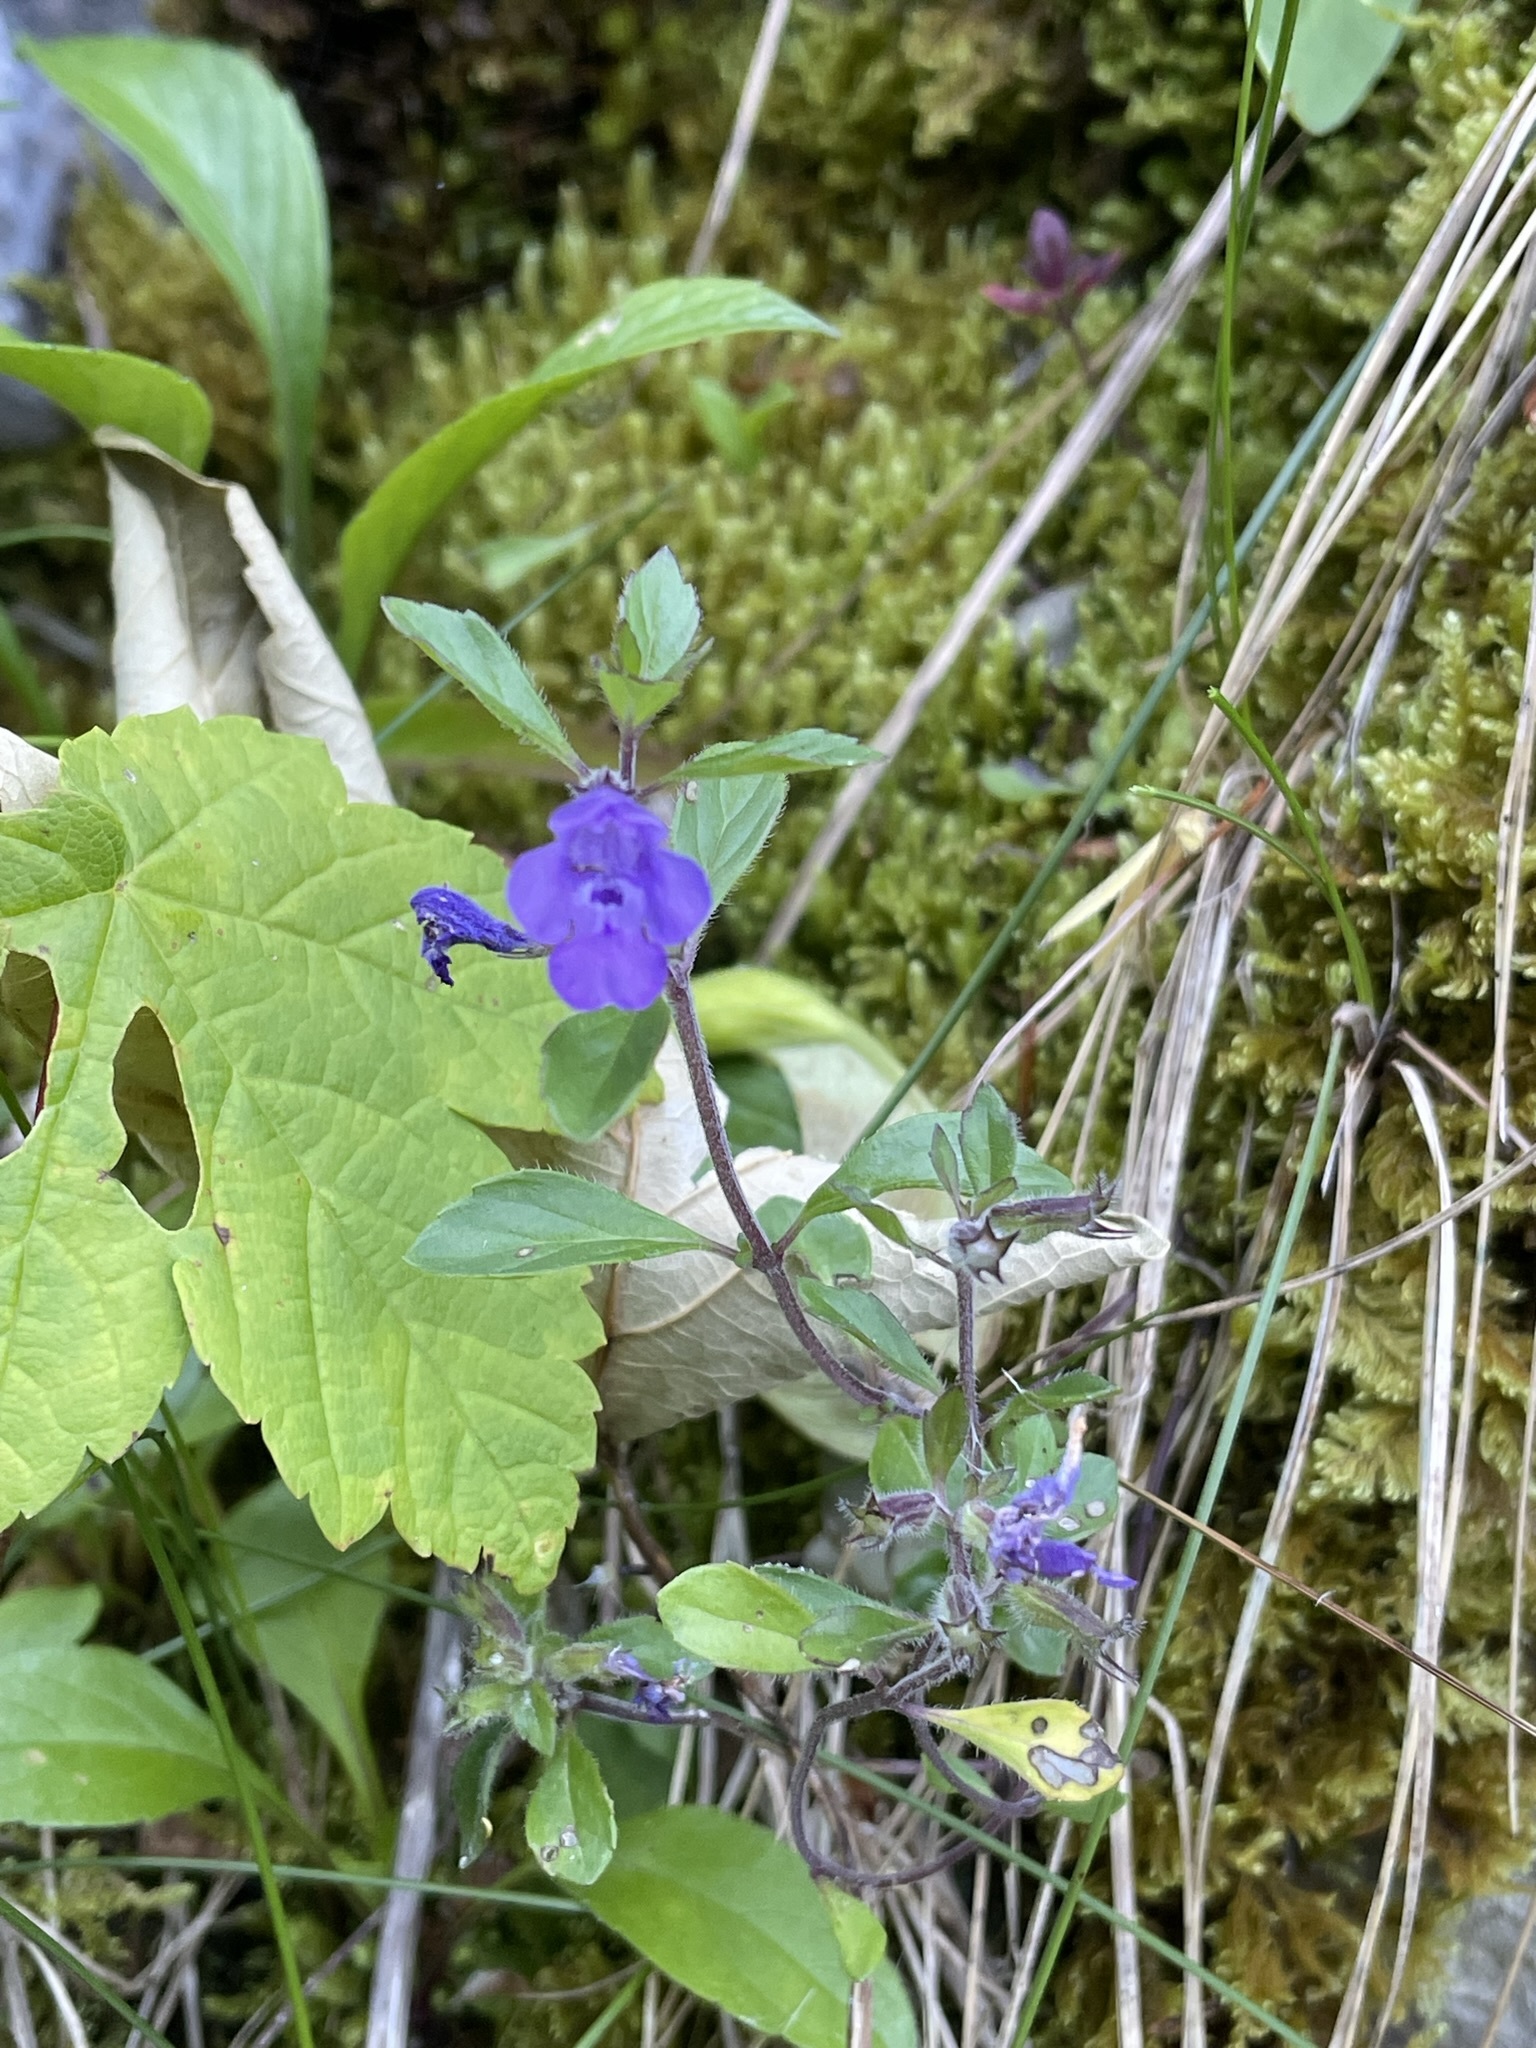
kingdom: Plantae
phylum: Tracheophyta
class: Magnoliopsida
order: Lamiales
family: Lamiaceae
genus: Clinopodium
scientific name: Clinopodium alpinum
